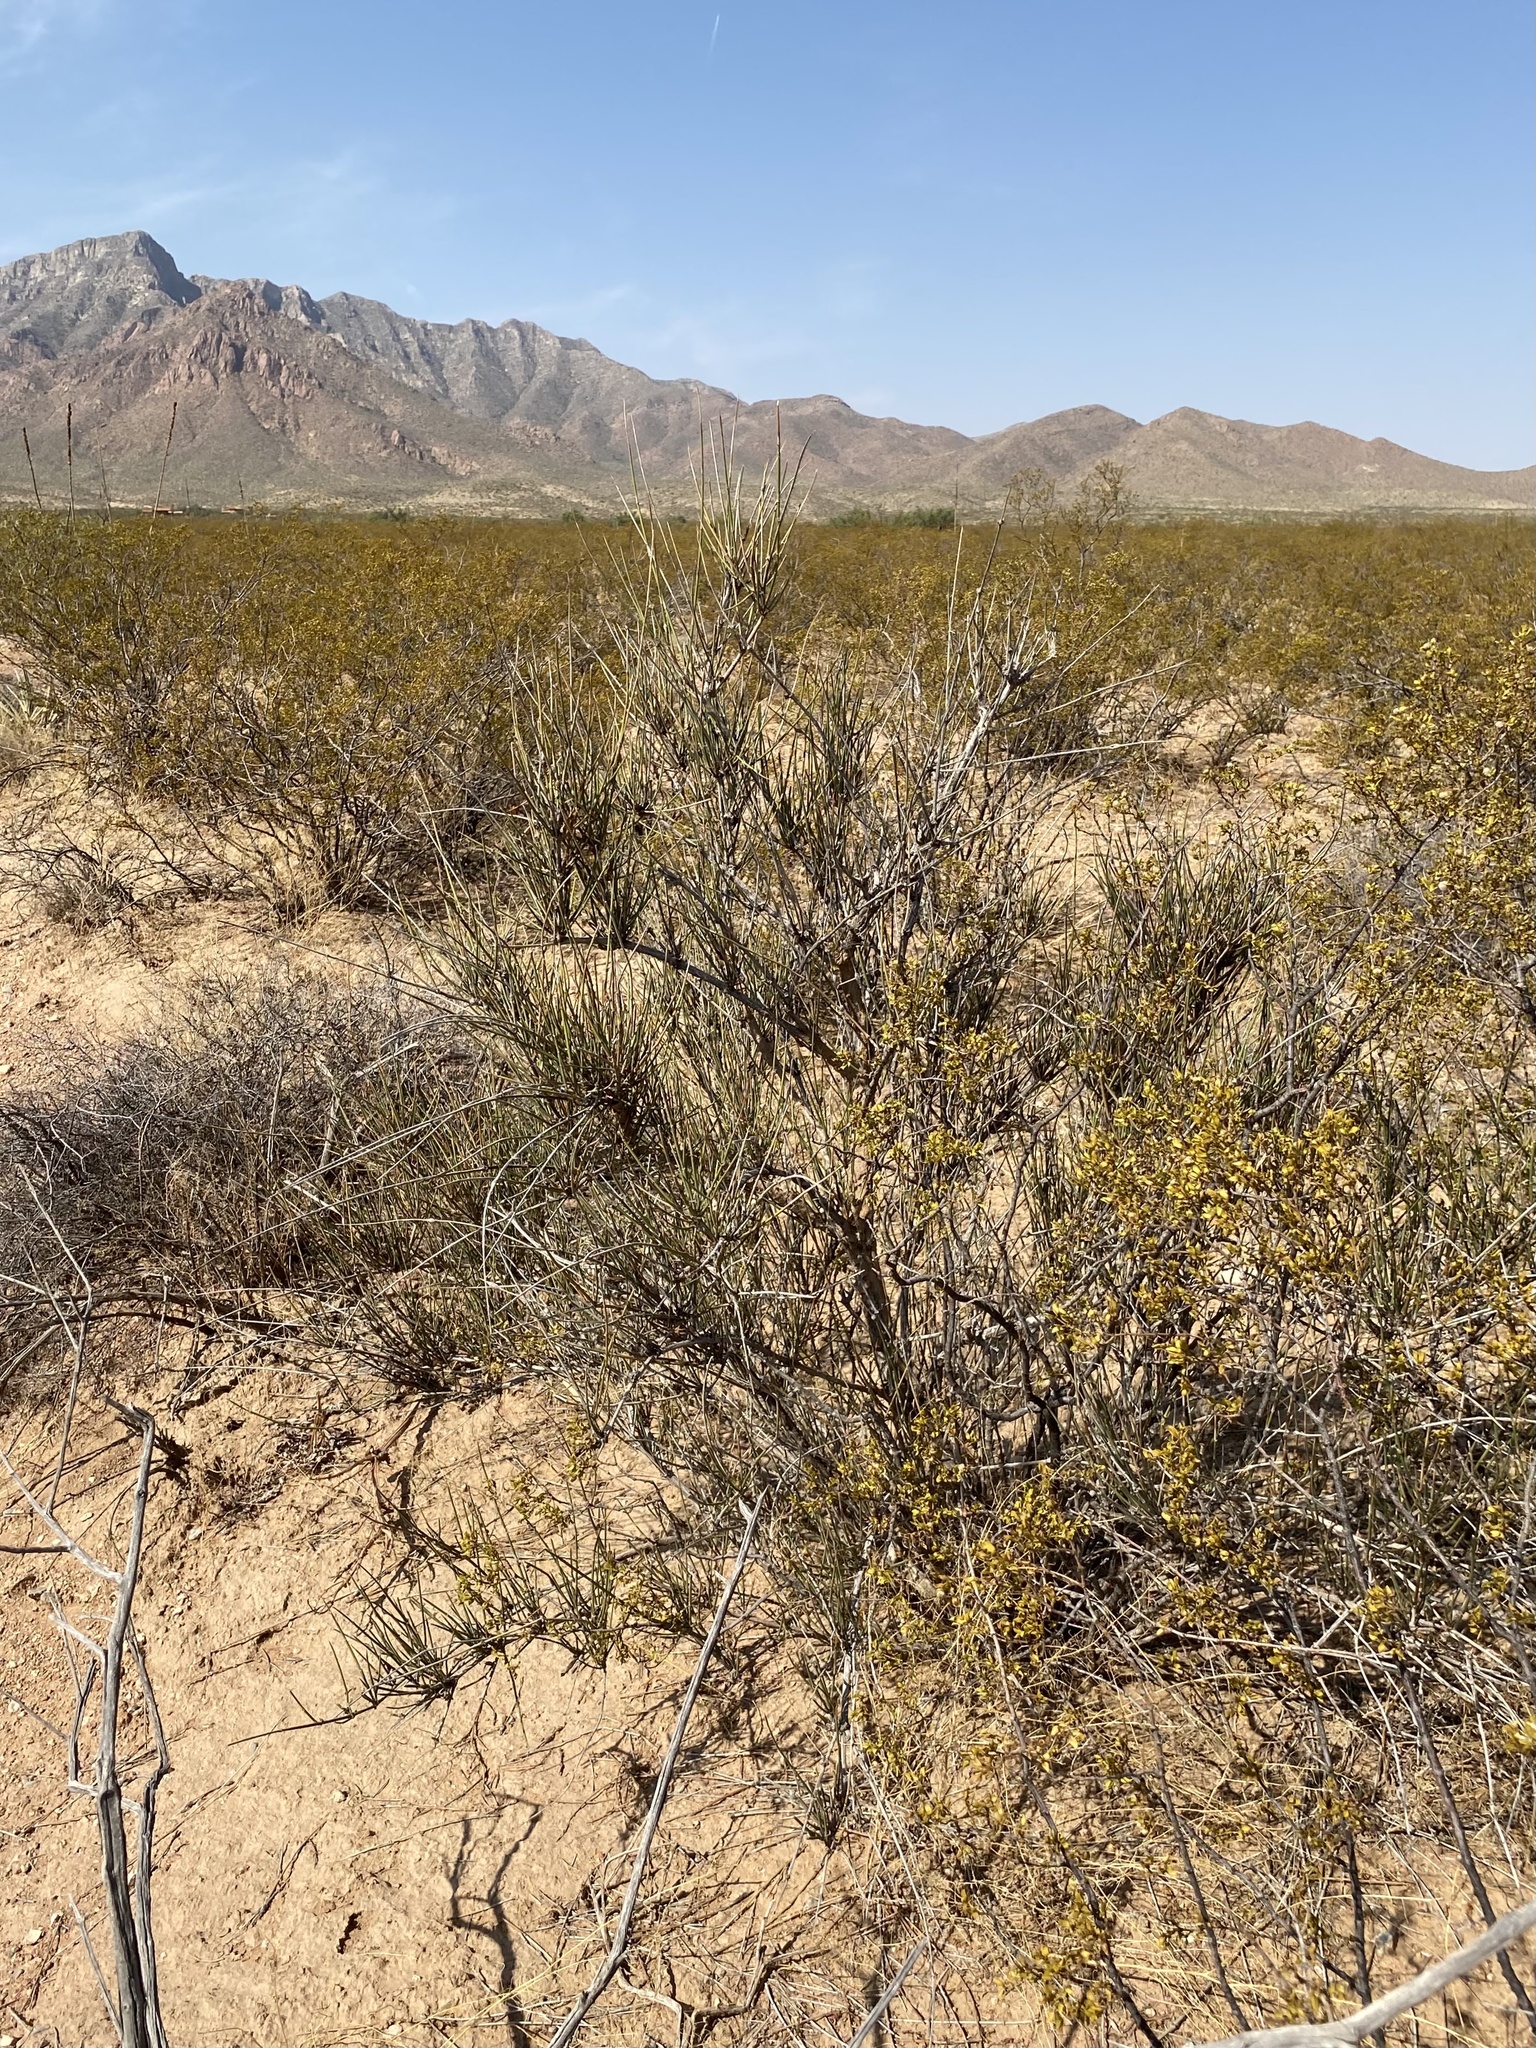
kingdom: Plantae
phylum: Tracheophyta
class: Gnetopsida
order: Ephedrales
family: Ephedraceae
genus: Ephedra
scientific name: Ephedra trifurca
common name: Mexican-tea
